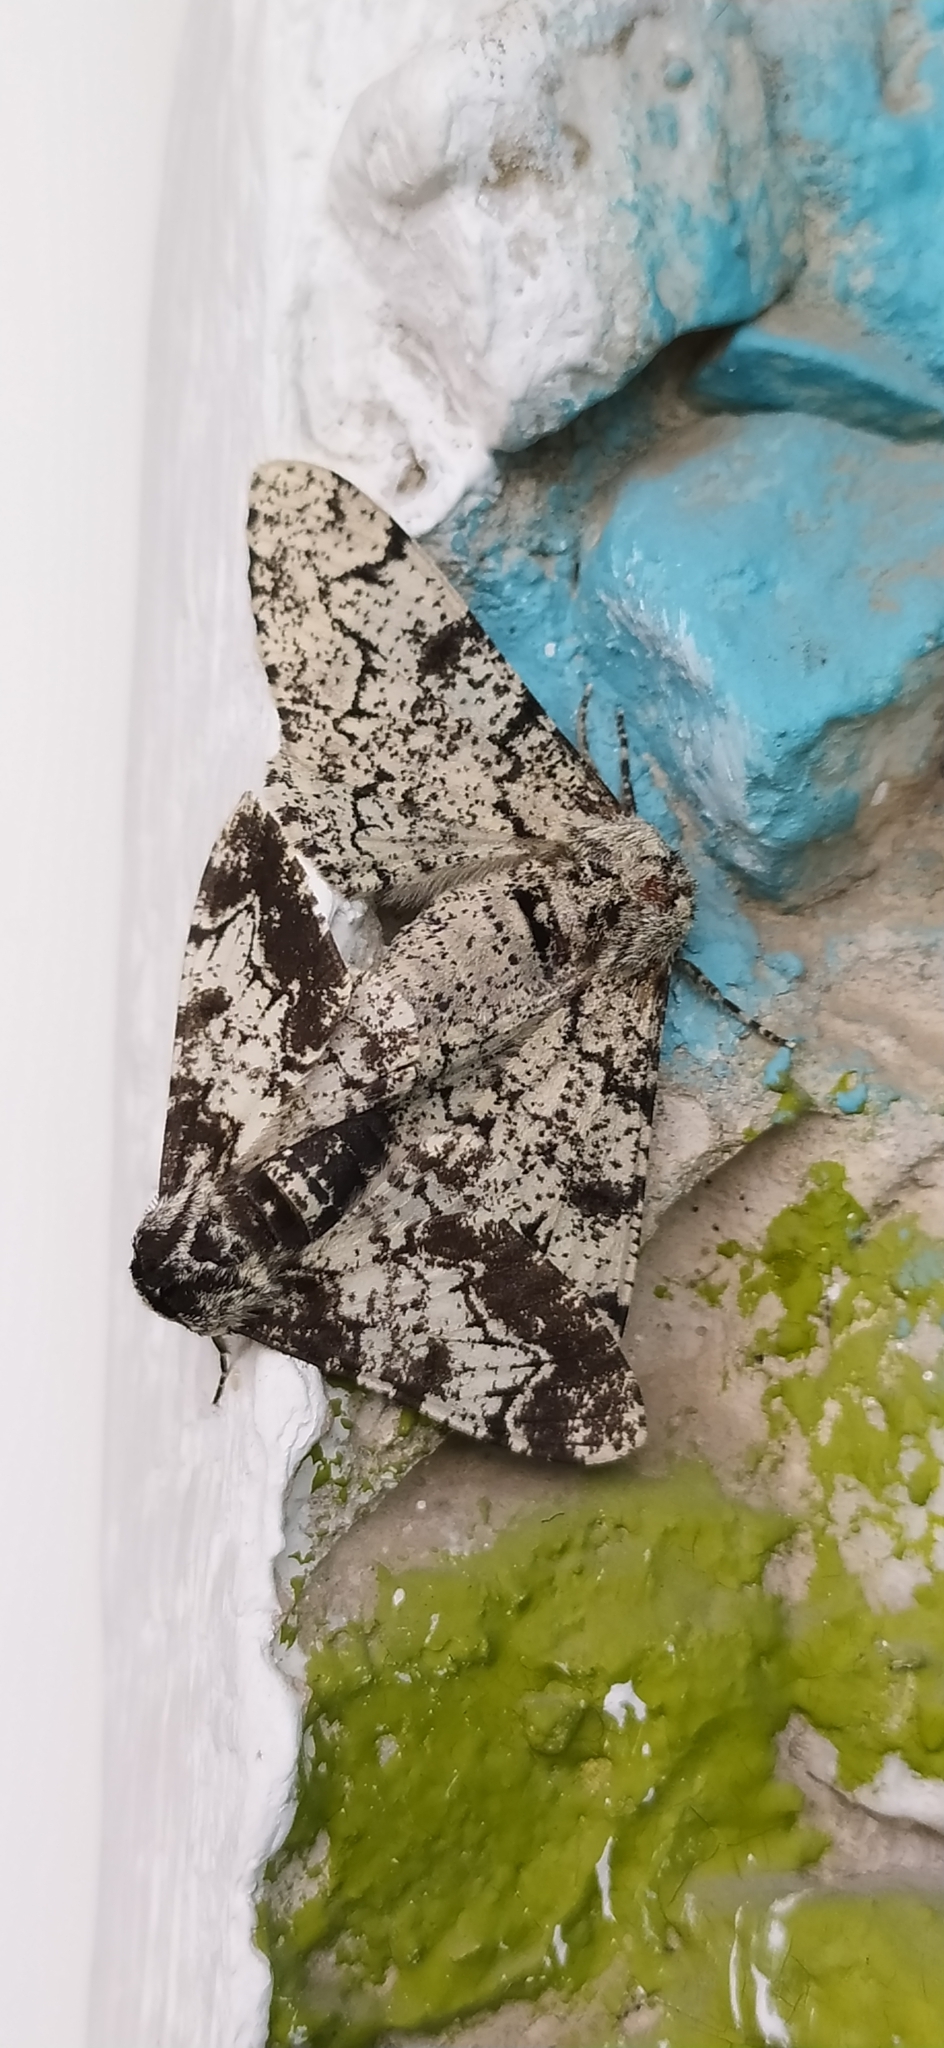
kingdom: Animalia
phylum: Arthropoda
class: Insecta
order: Lepidoptera
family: Geometridae
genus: Biston
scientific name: Biston betularia
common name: Peppered moth
